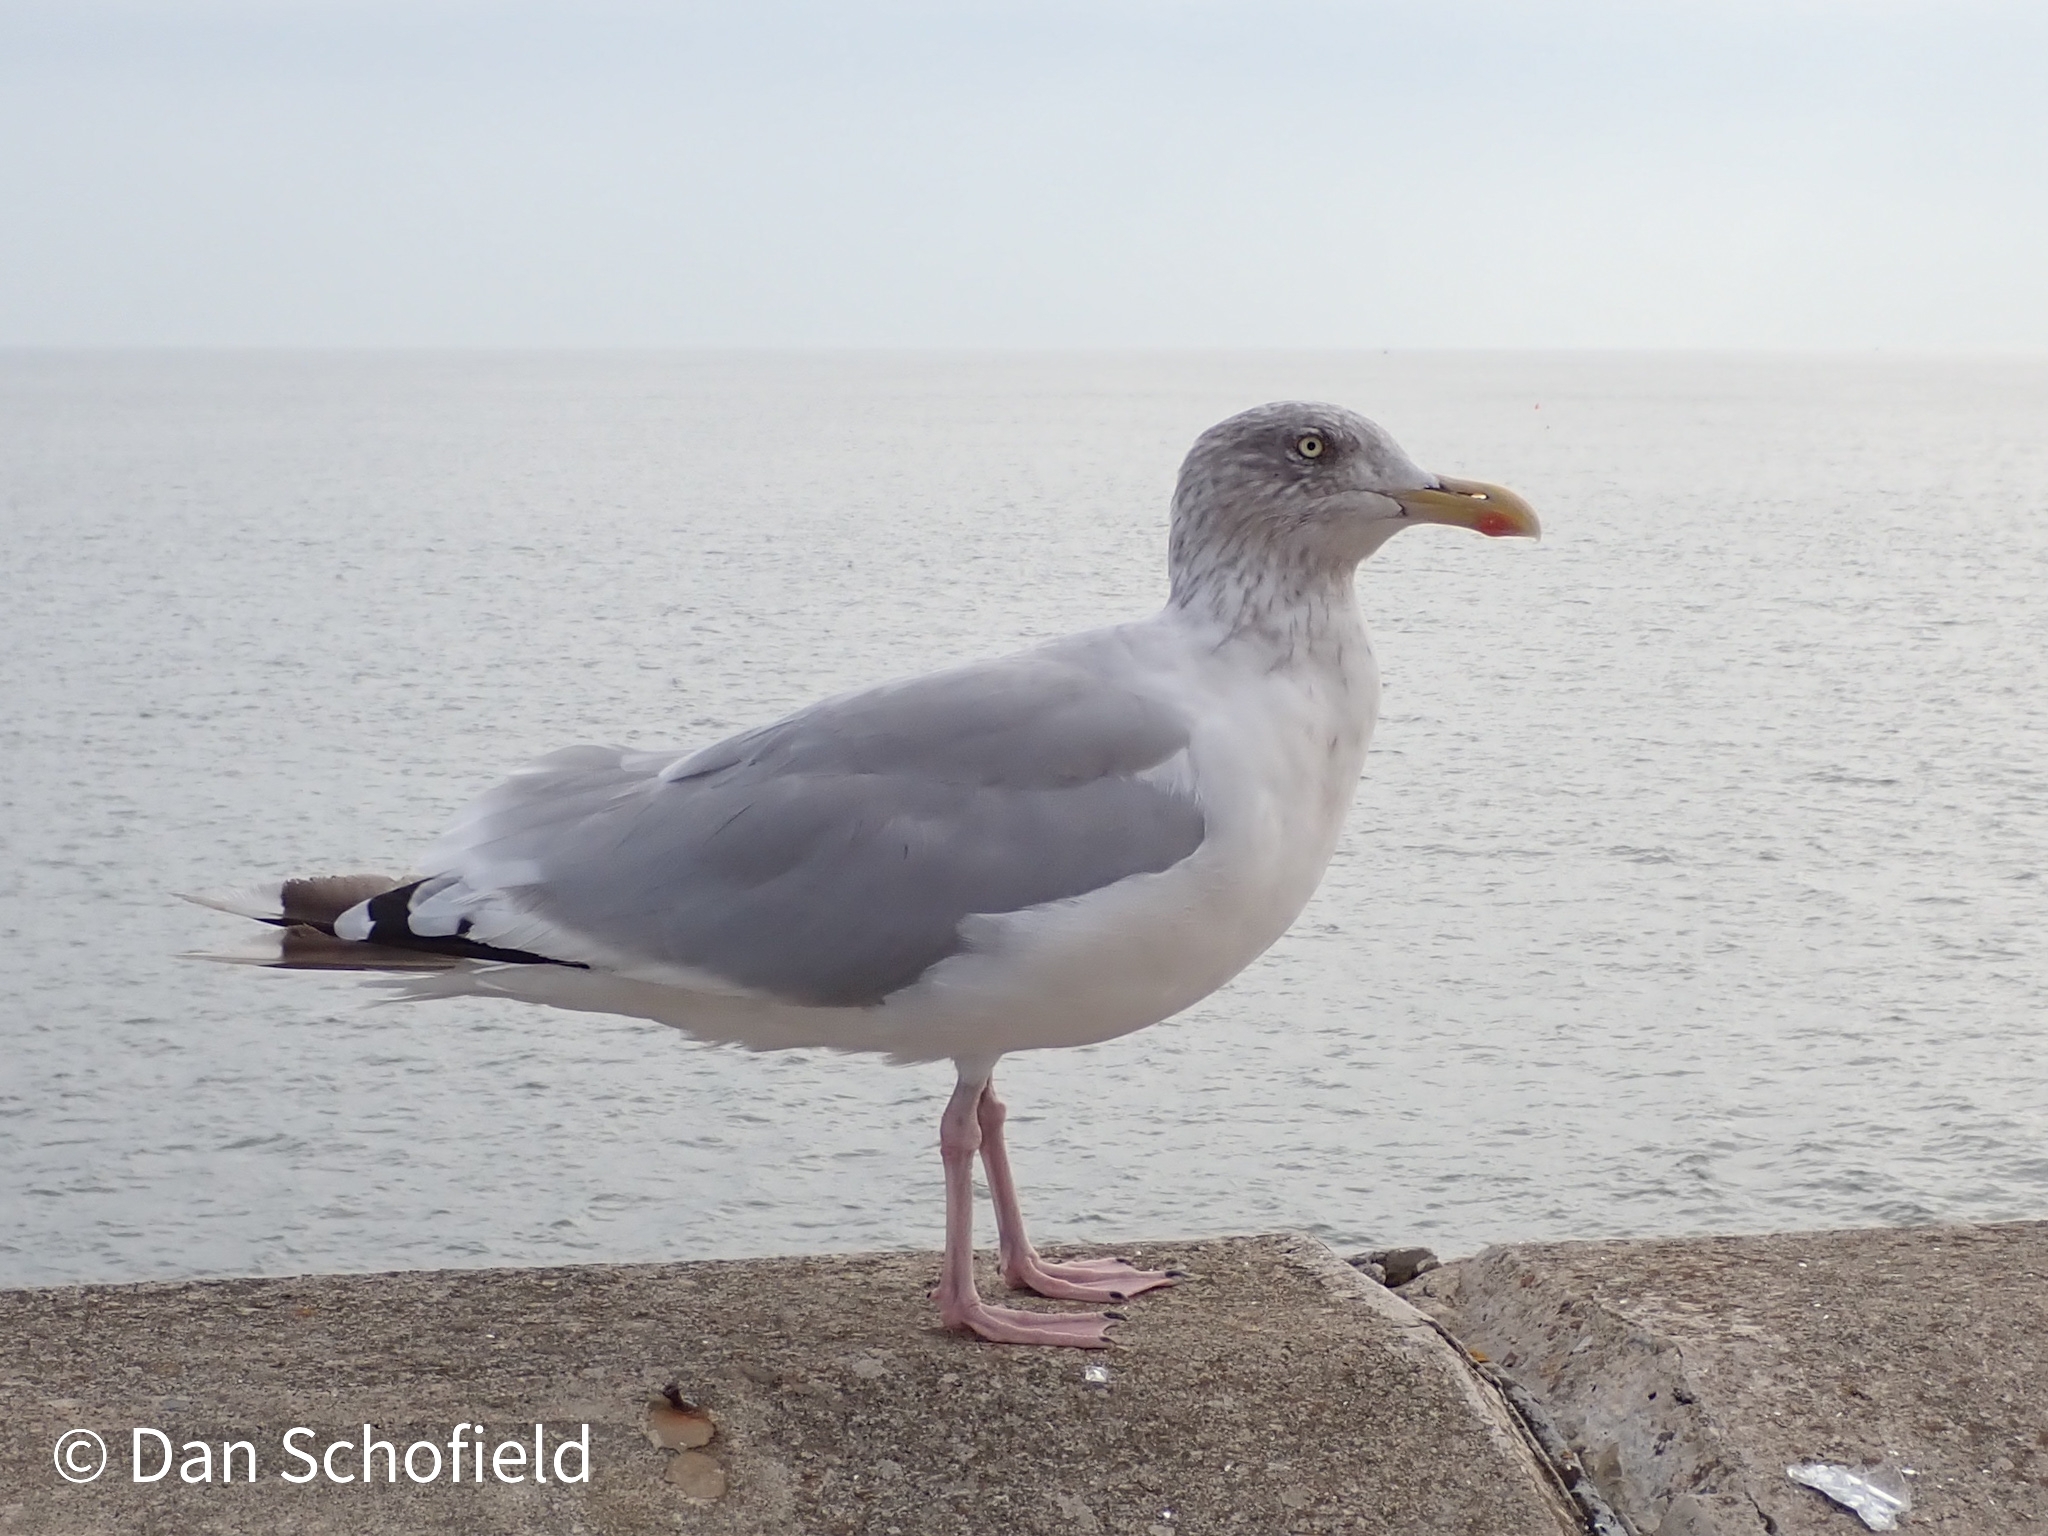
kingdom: Animalia
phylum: Chordata
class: Aves
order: Charadriiformes
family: Laridae
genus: Larus
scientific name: Larus argentatus
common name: Herring gull
